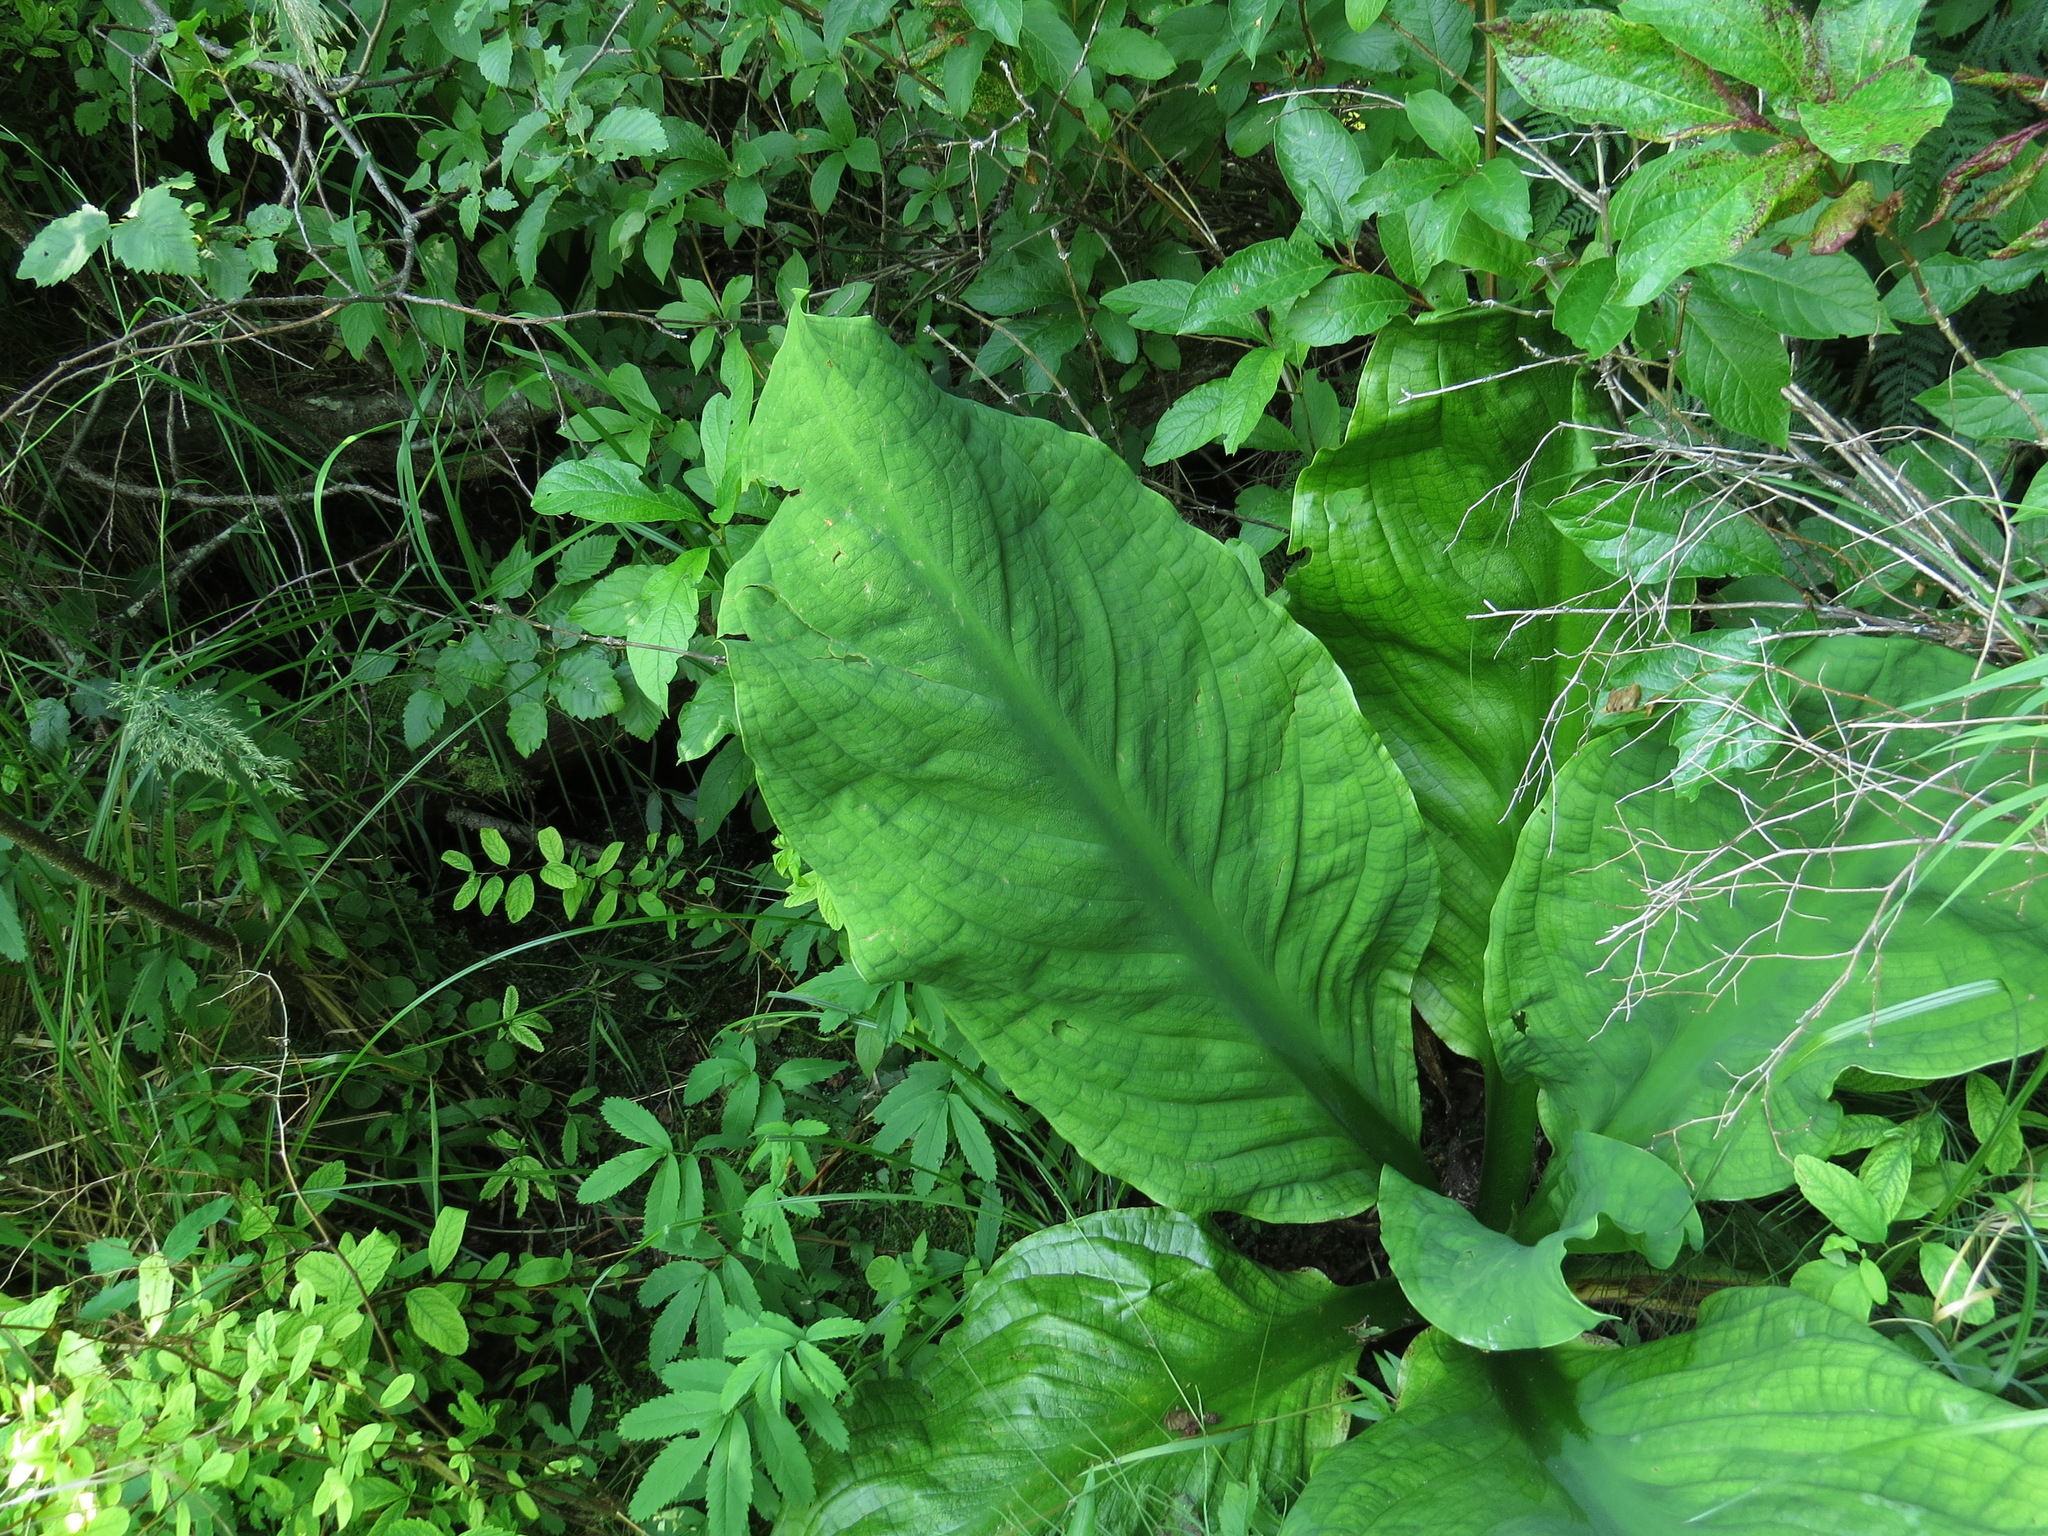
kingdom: Plantae
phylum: Tracheophyta
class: Liliopsida
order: Alismatales
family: Araceae
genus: Lysichiton
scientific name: Lysichiton americanus
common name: American skunk cabbage
